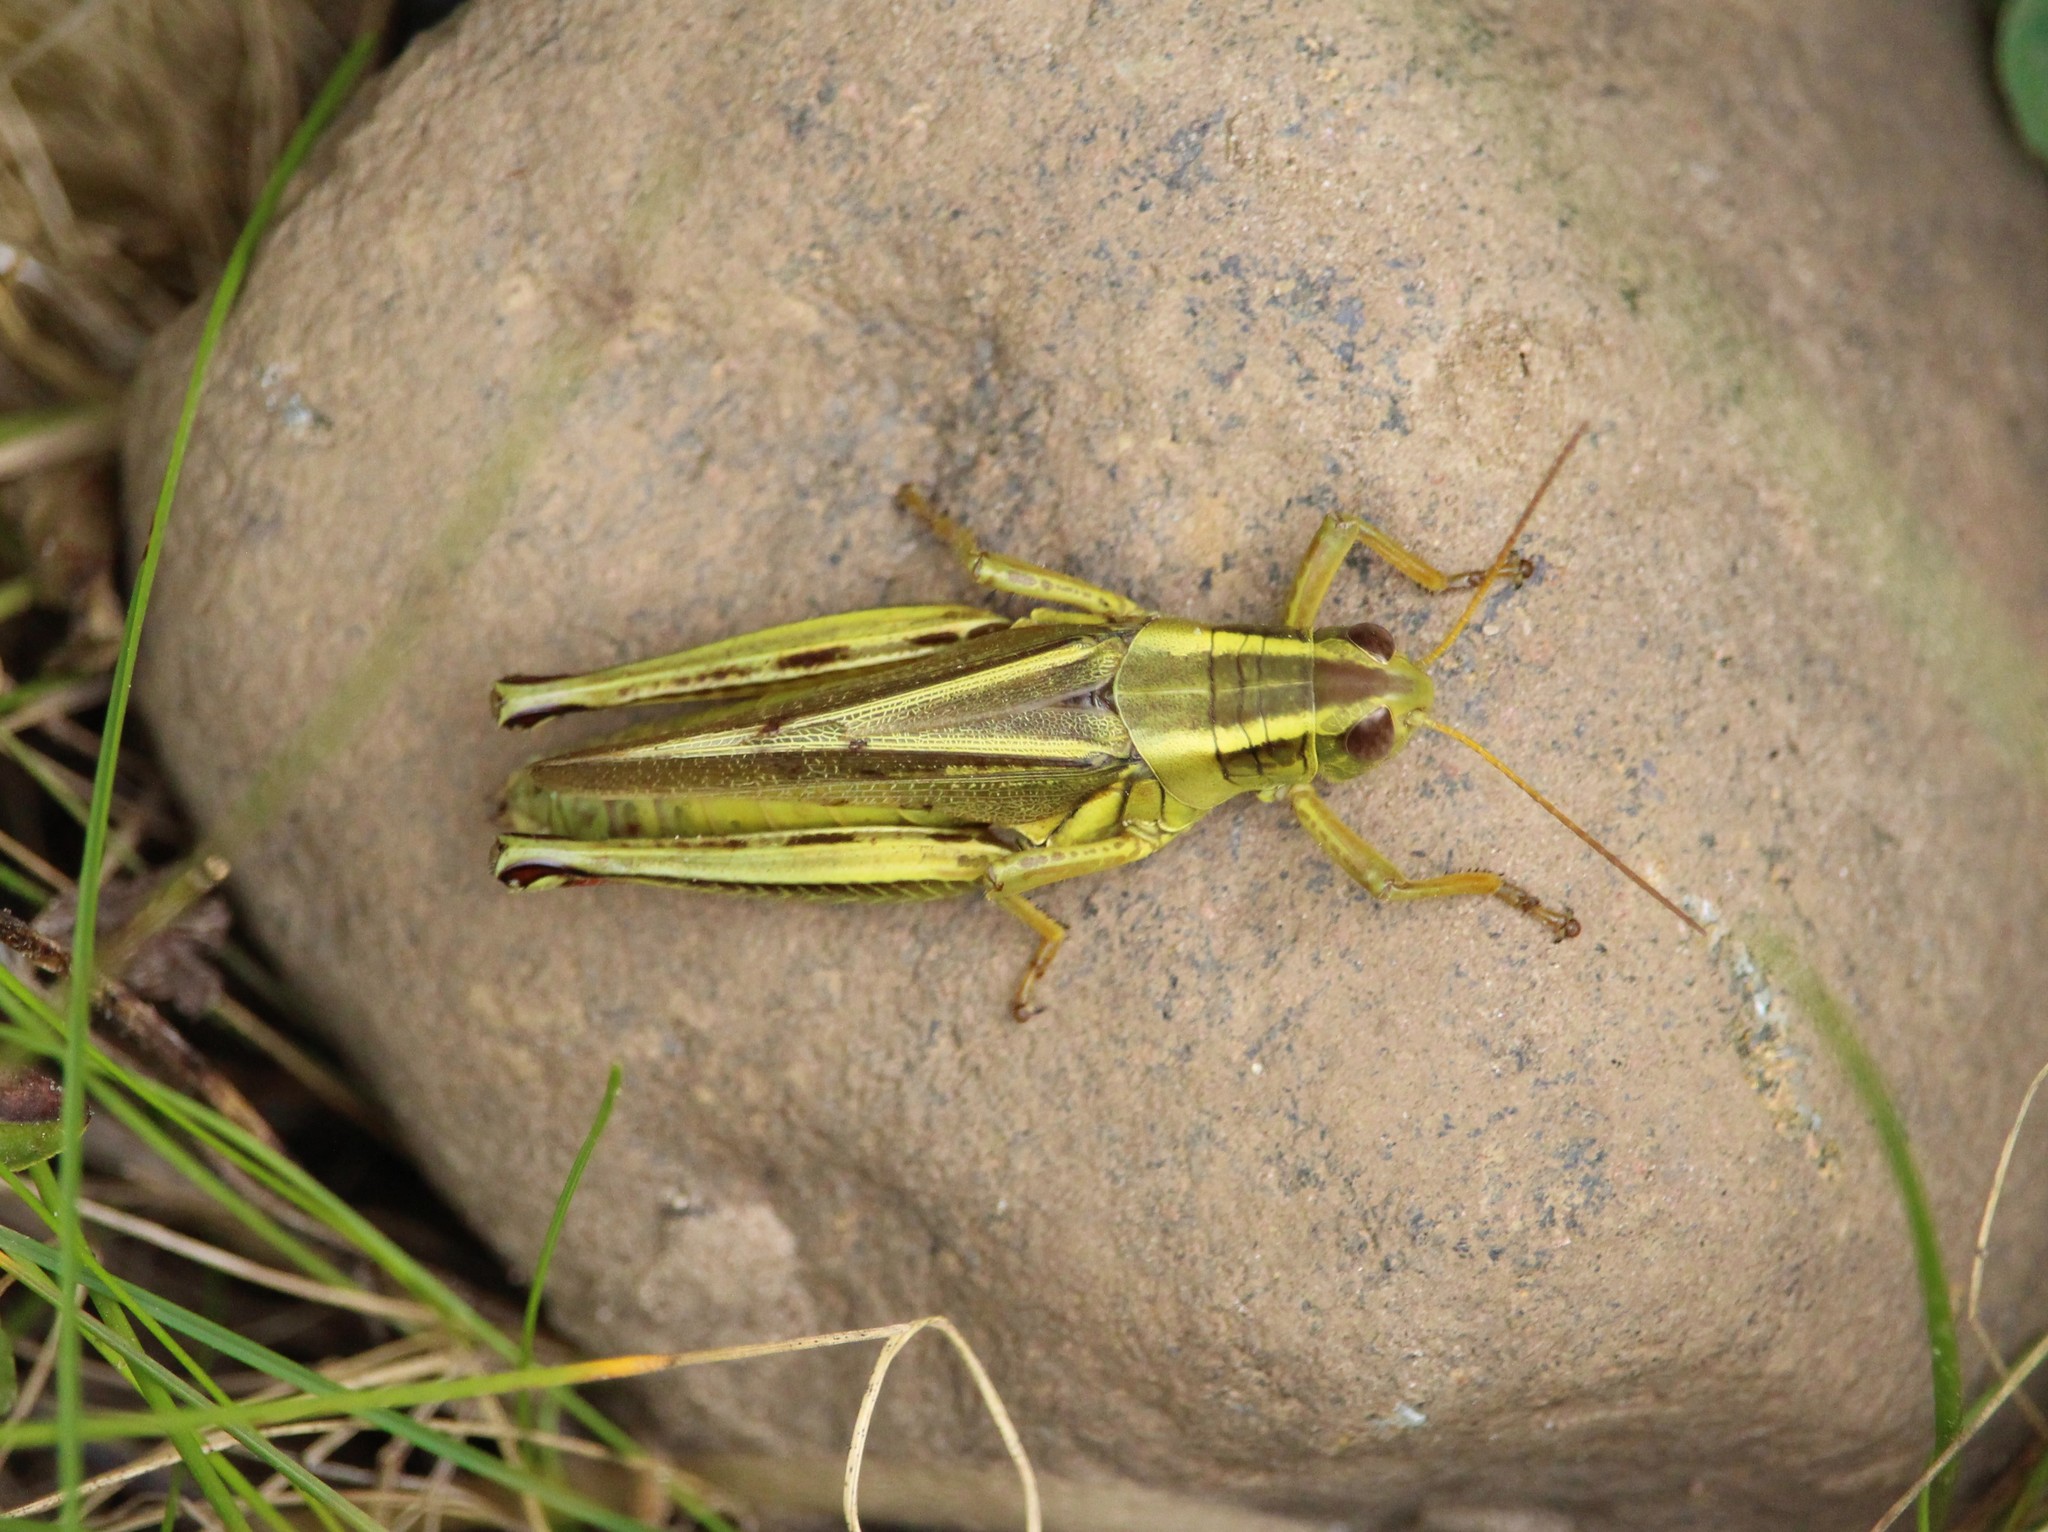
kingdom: Animalia
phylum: Arthropoda
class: Insecta
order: Orthoptera
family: Acrididae
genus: Melanoplus
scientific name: Melanoplus bivittatus
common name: Two-striped grasshopper
